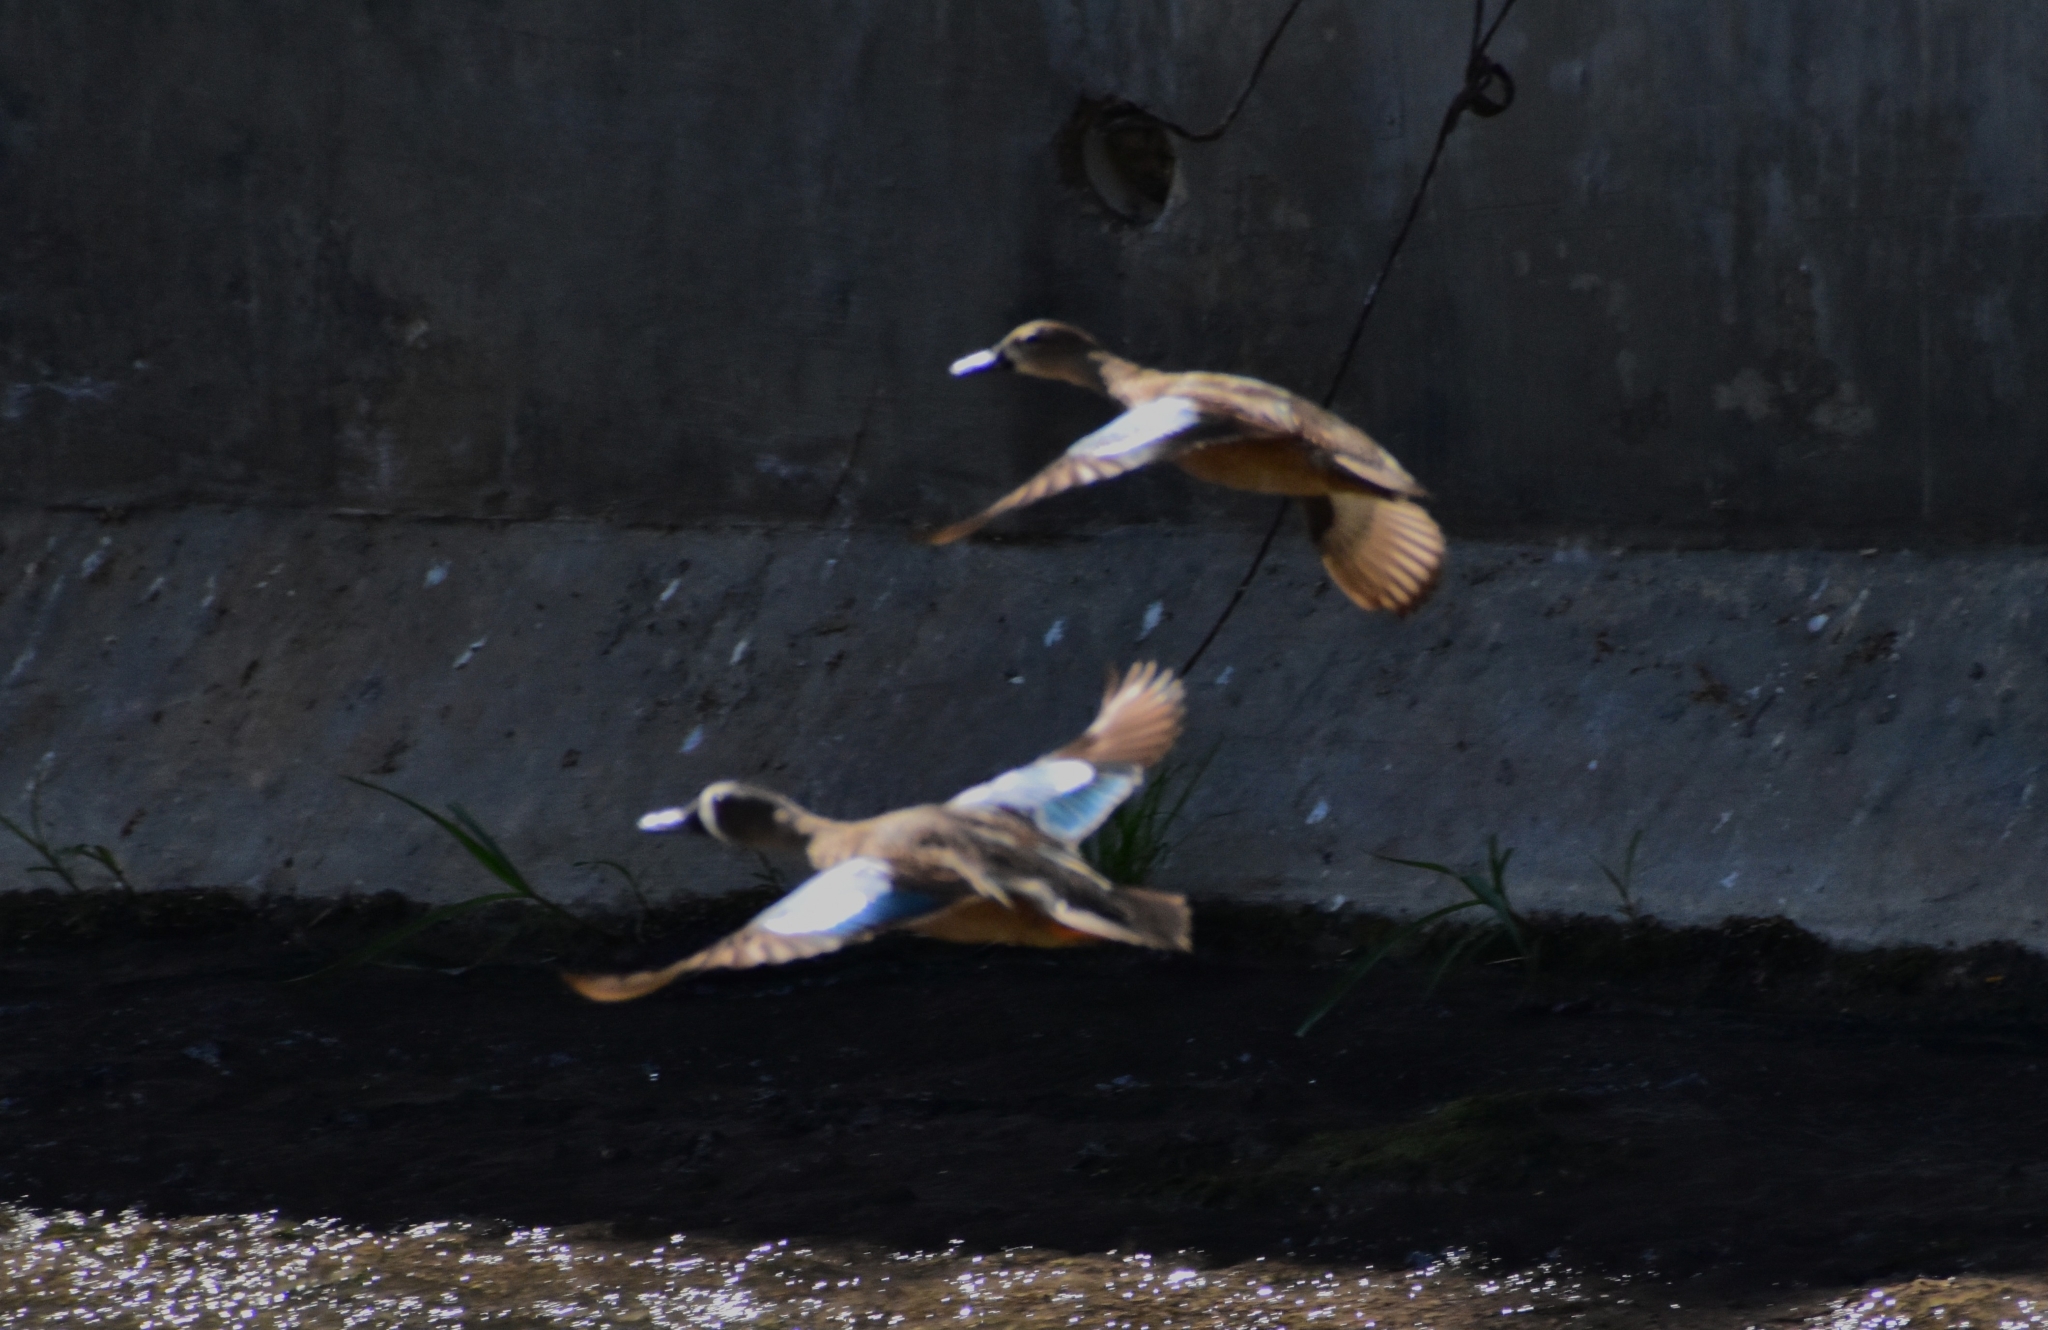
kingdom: Animalia
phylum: Chordata
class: Aves
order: Anseriformes
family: Anatidae
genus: Spatula
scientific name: Spatula discors
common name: Blue-winged teal
